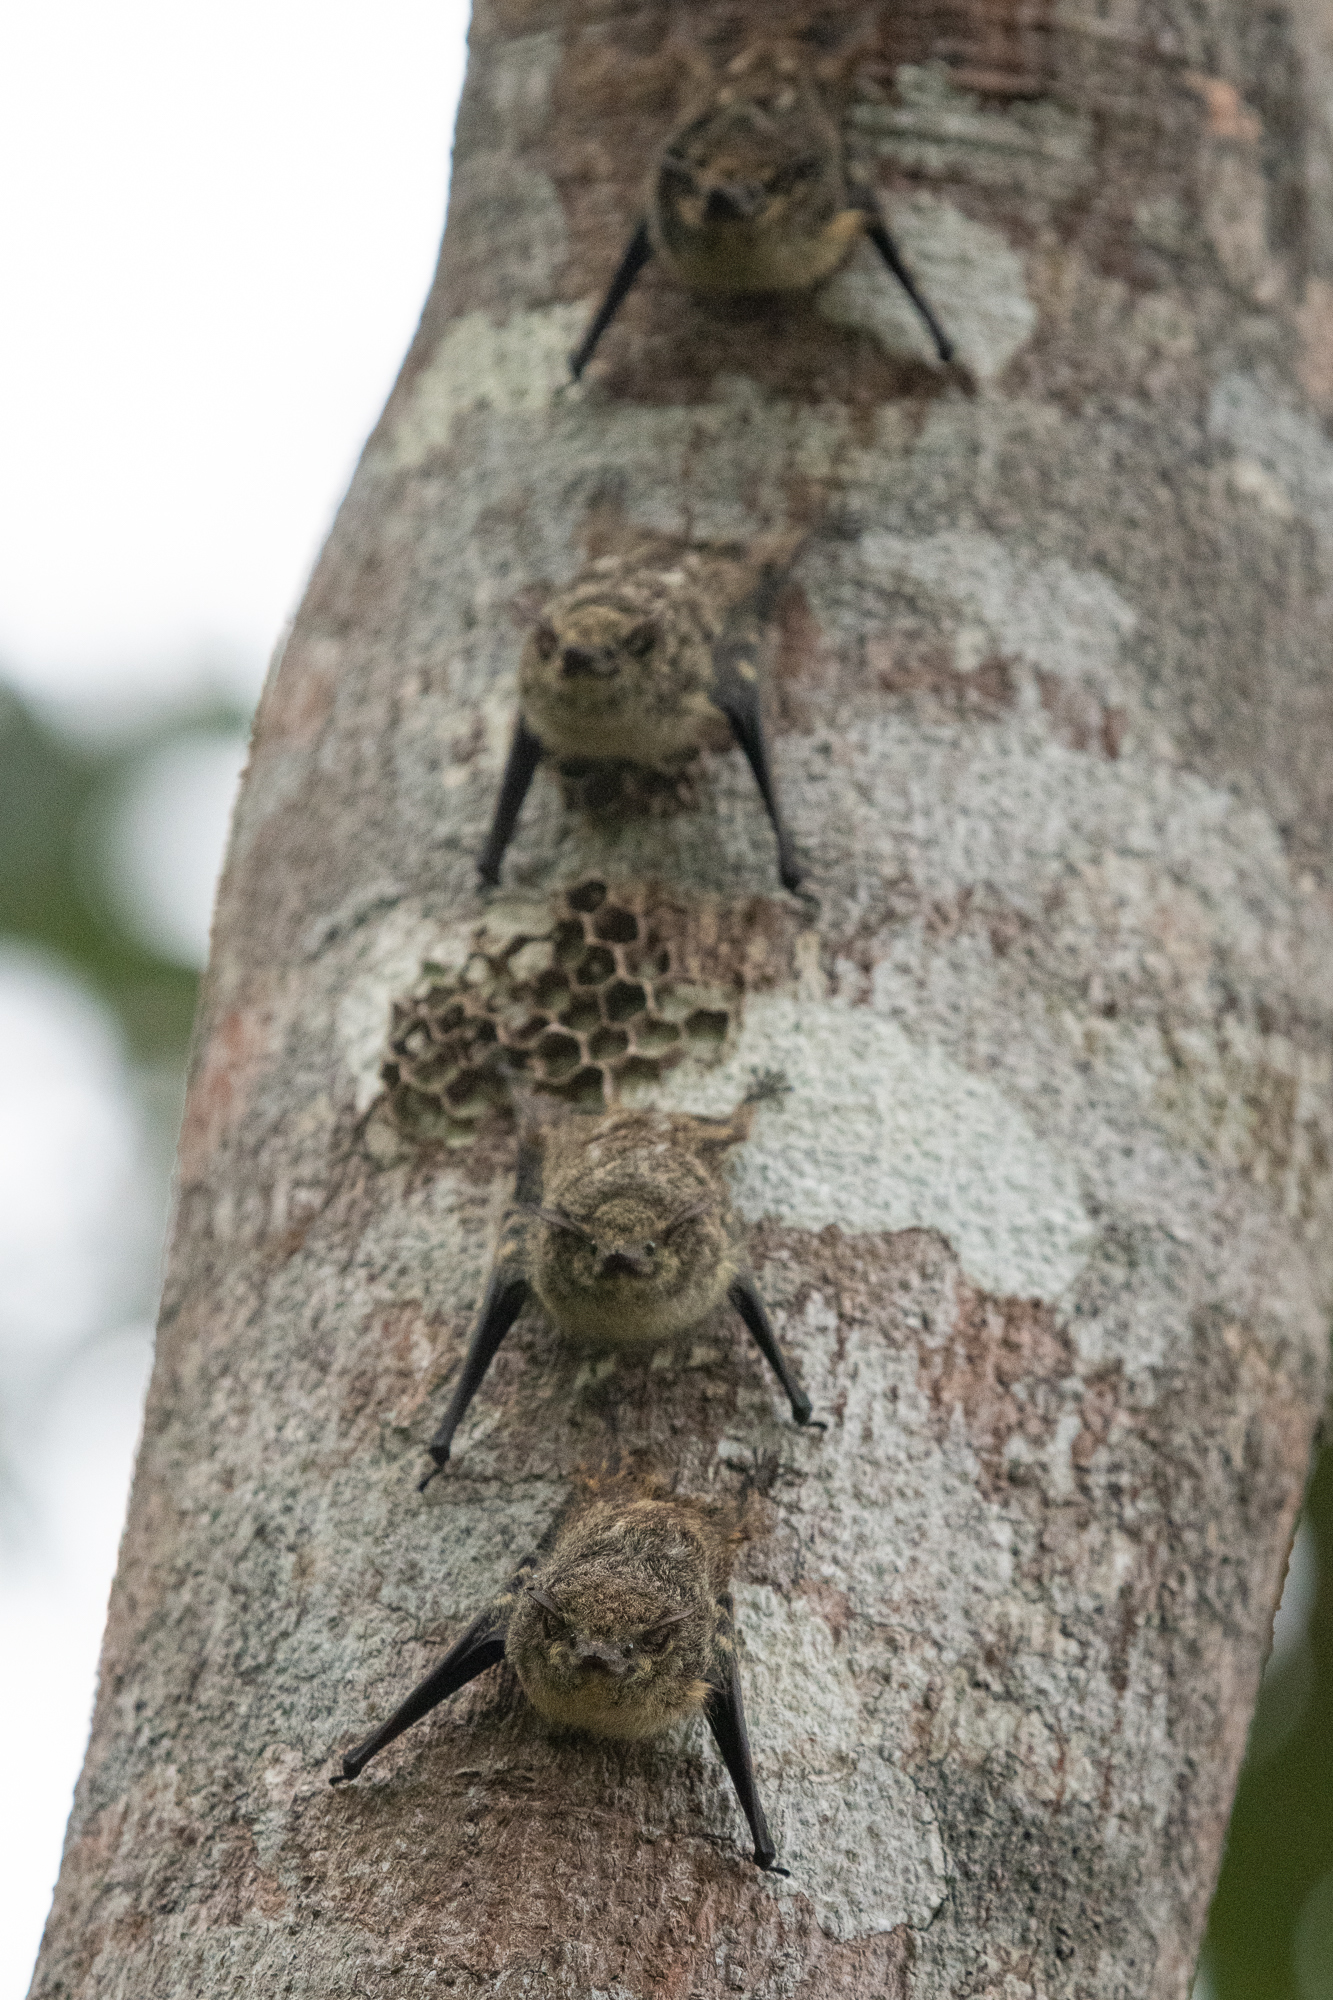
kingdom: Animalia
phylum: Chordata
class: Mammalia
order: Chiroptera
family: Emballonuridae
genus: Rhynchonycteris
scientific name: Rhynchonycteris naso
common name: Proboscis bat
